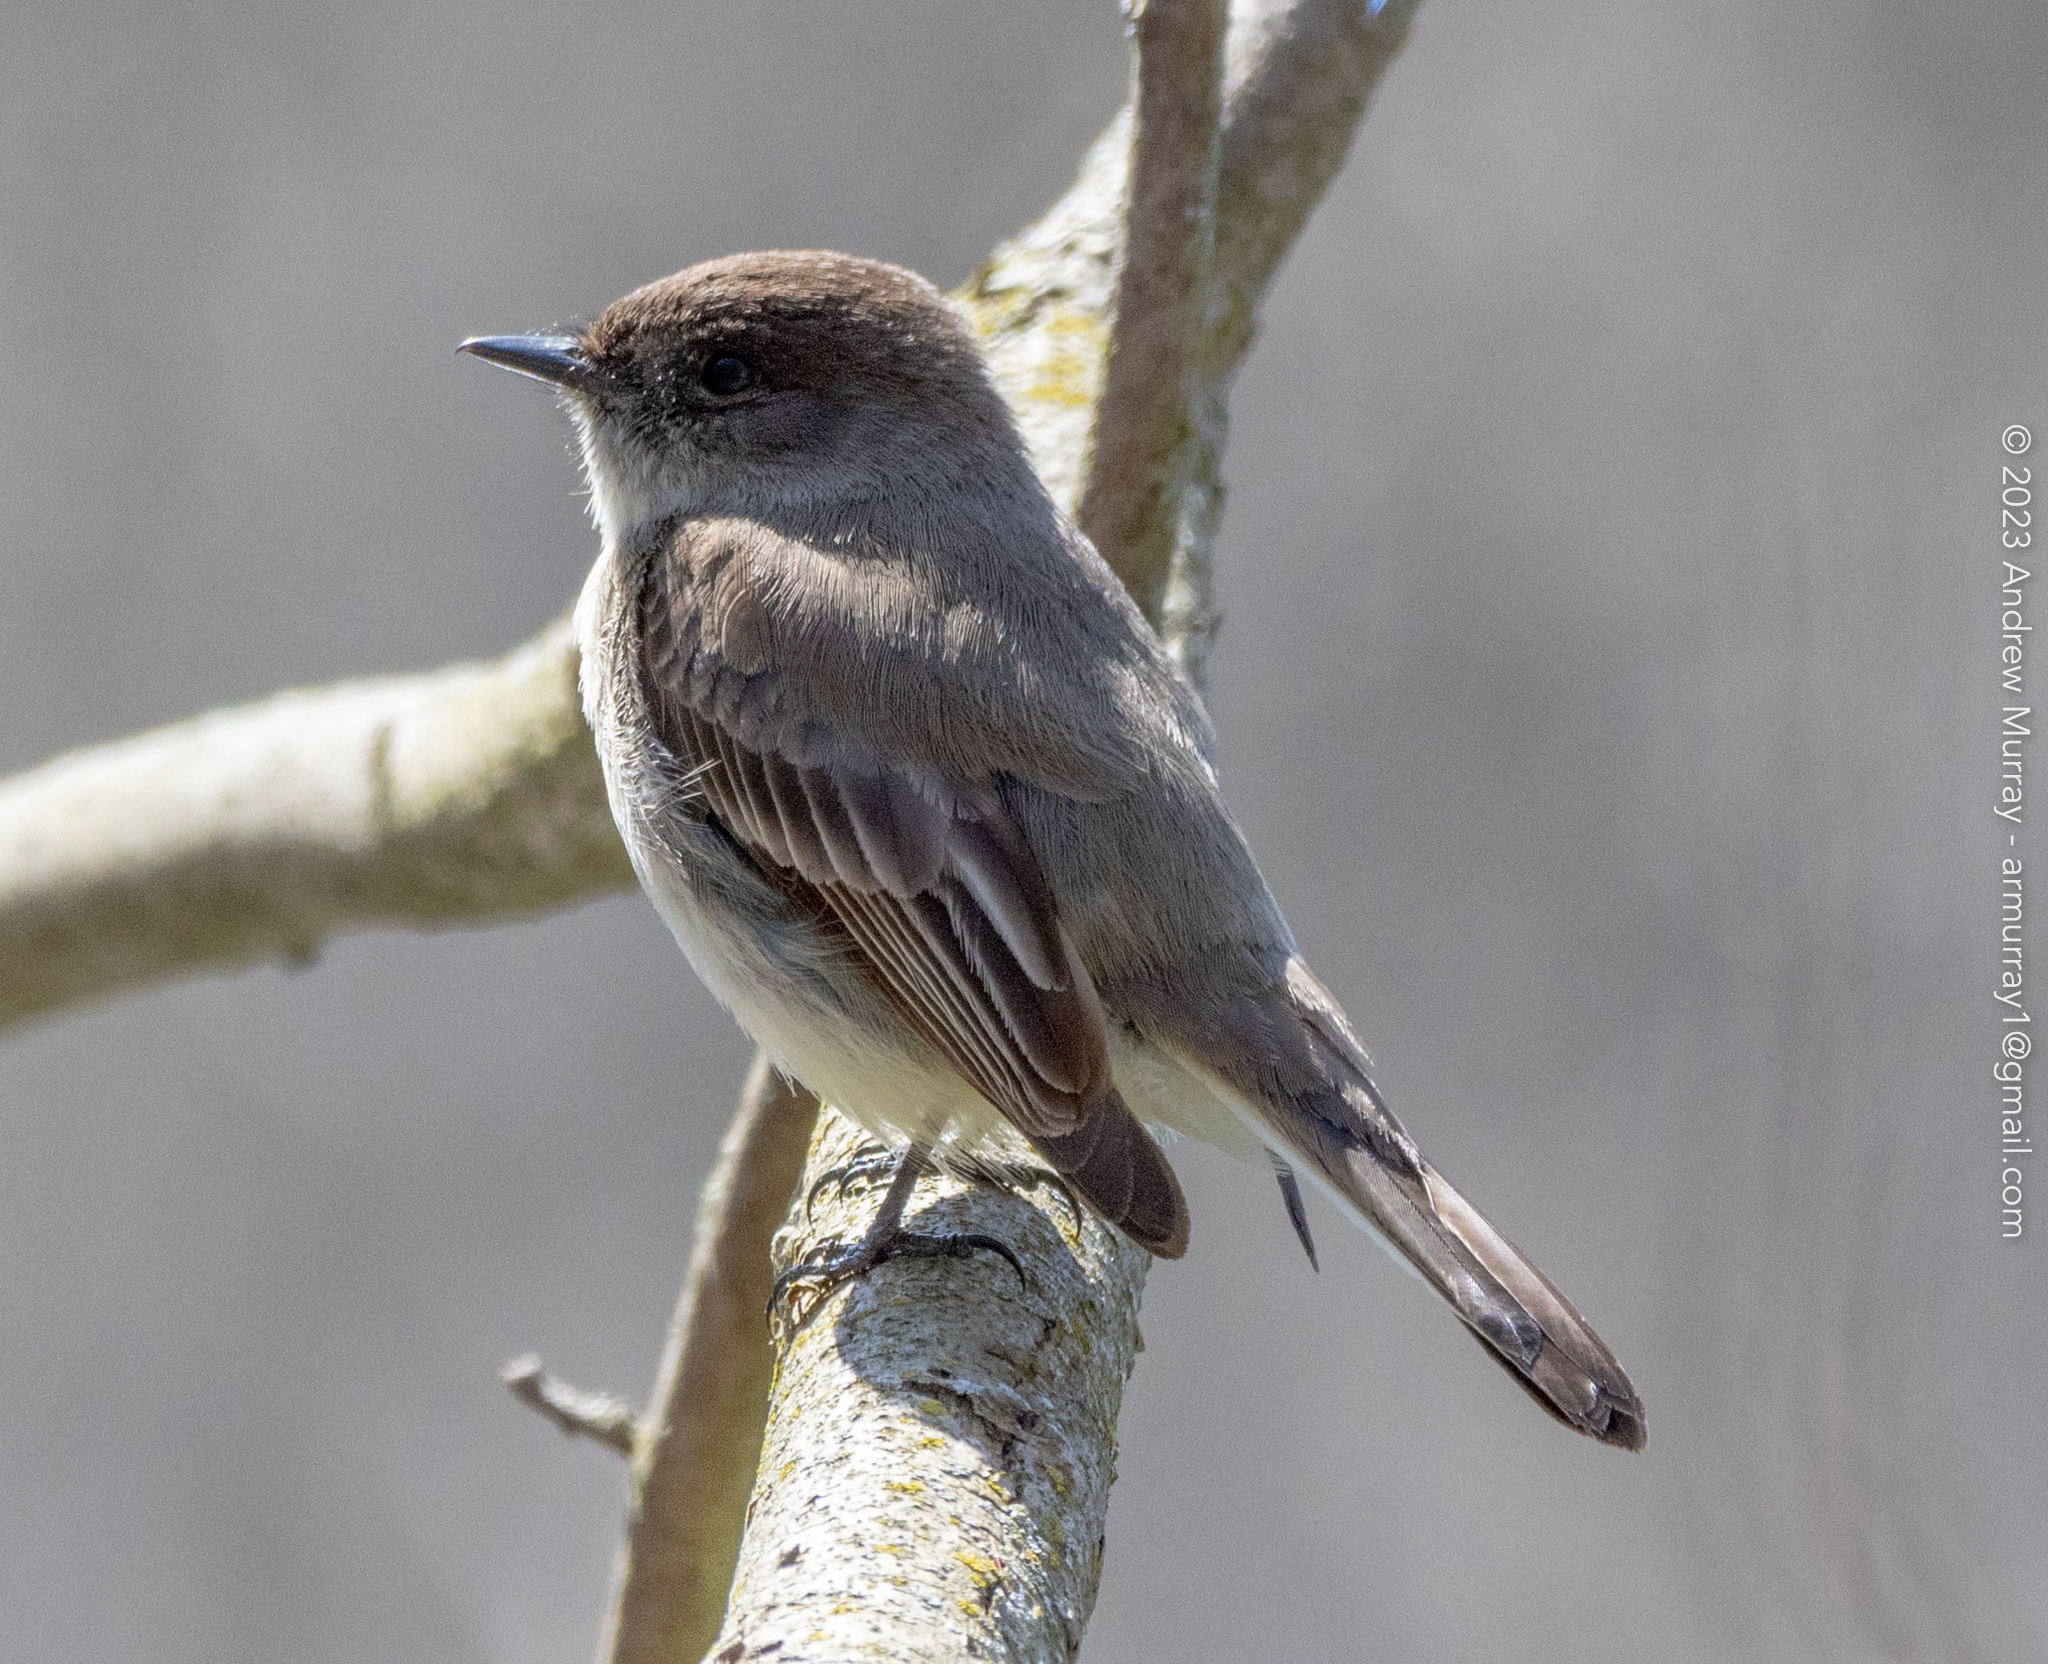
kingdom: Animalia
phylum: Chordata
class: Aves
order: Passeriformes
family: Tyrannidae
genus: Sayornis
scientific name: Sayornis phoebe
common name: Eastern phoebe
